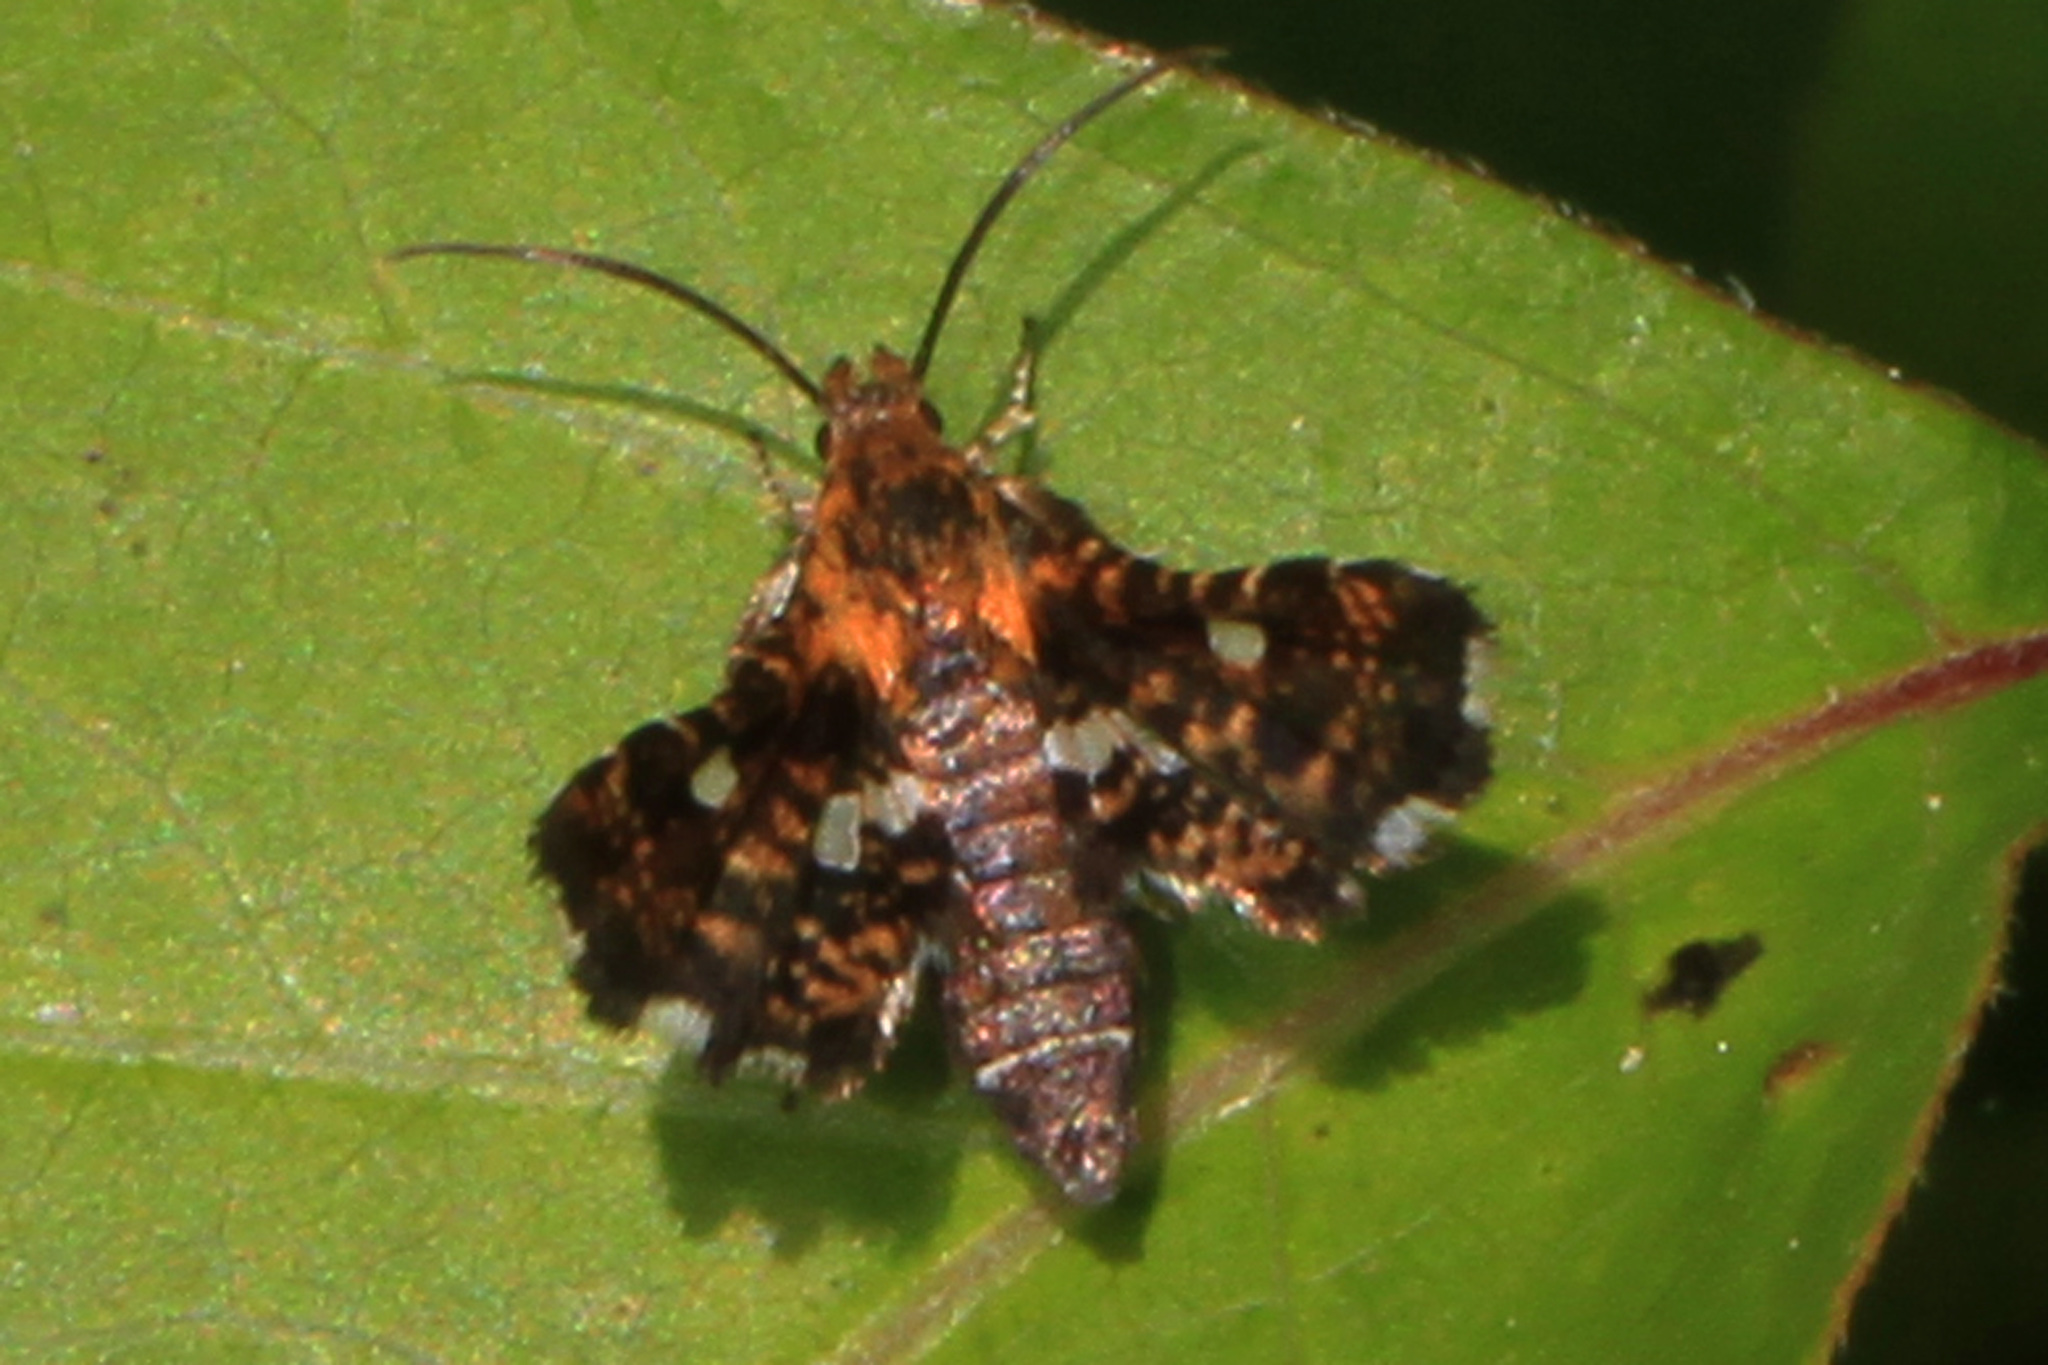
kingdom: Animalia
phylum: Arthropoda
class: Insecta
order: Lepidoptera
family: Thyrididae
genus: Thyris
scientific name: Thyris maculata
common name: Spotted thyris moth
